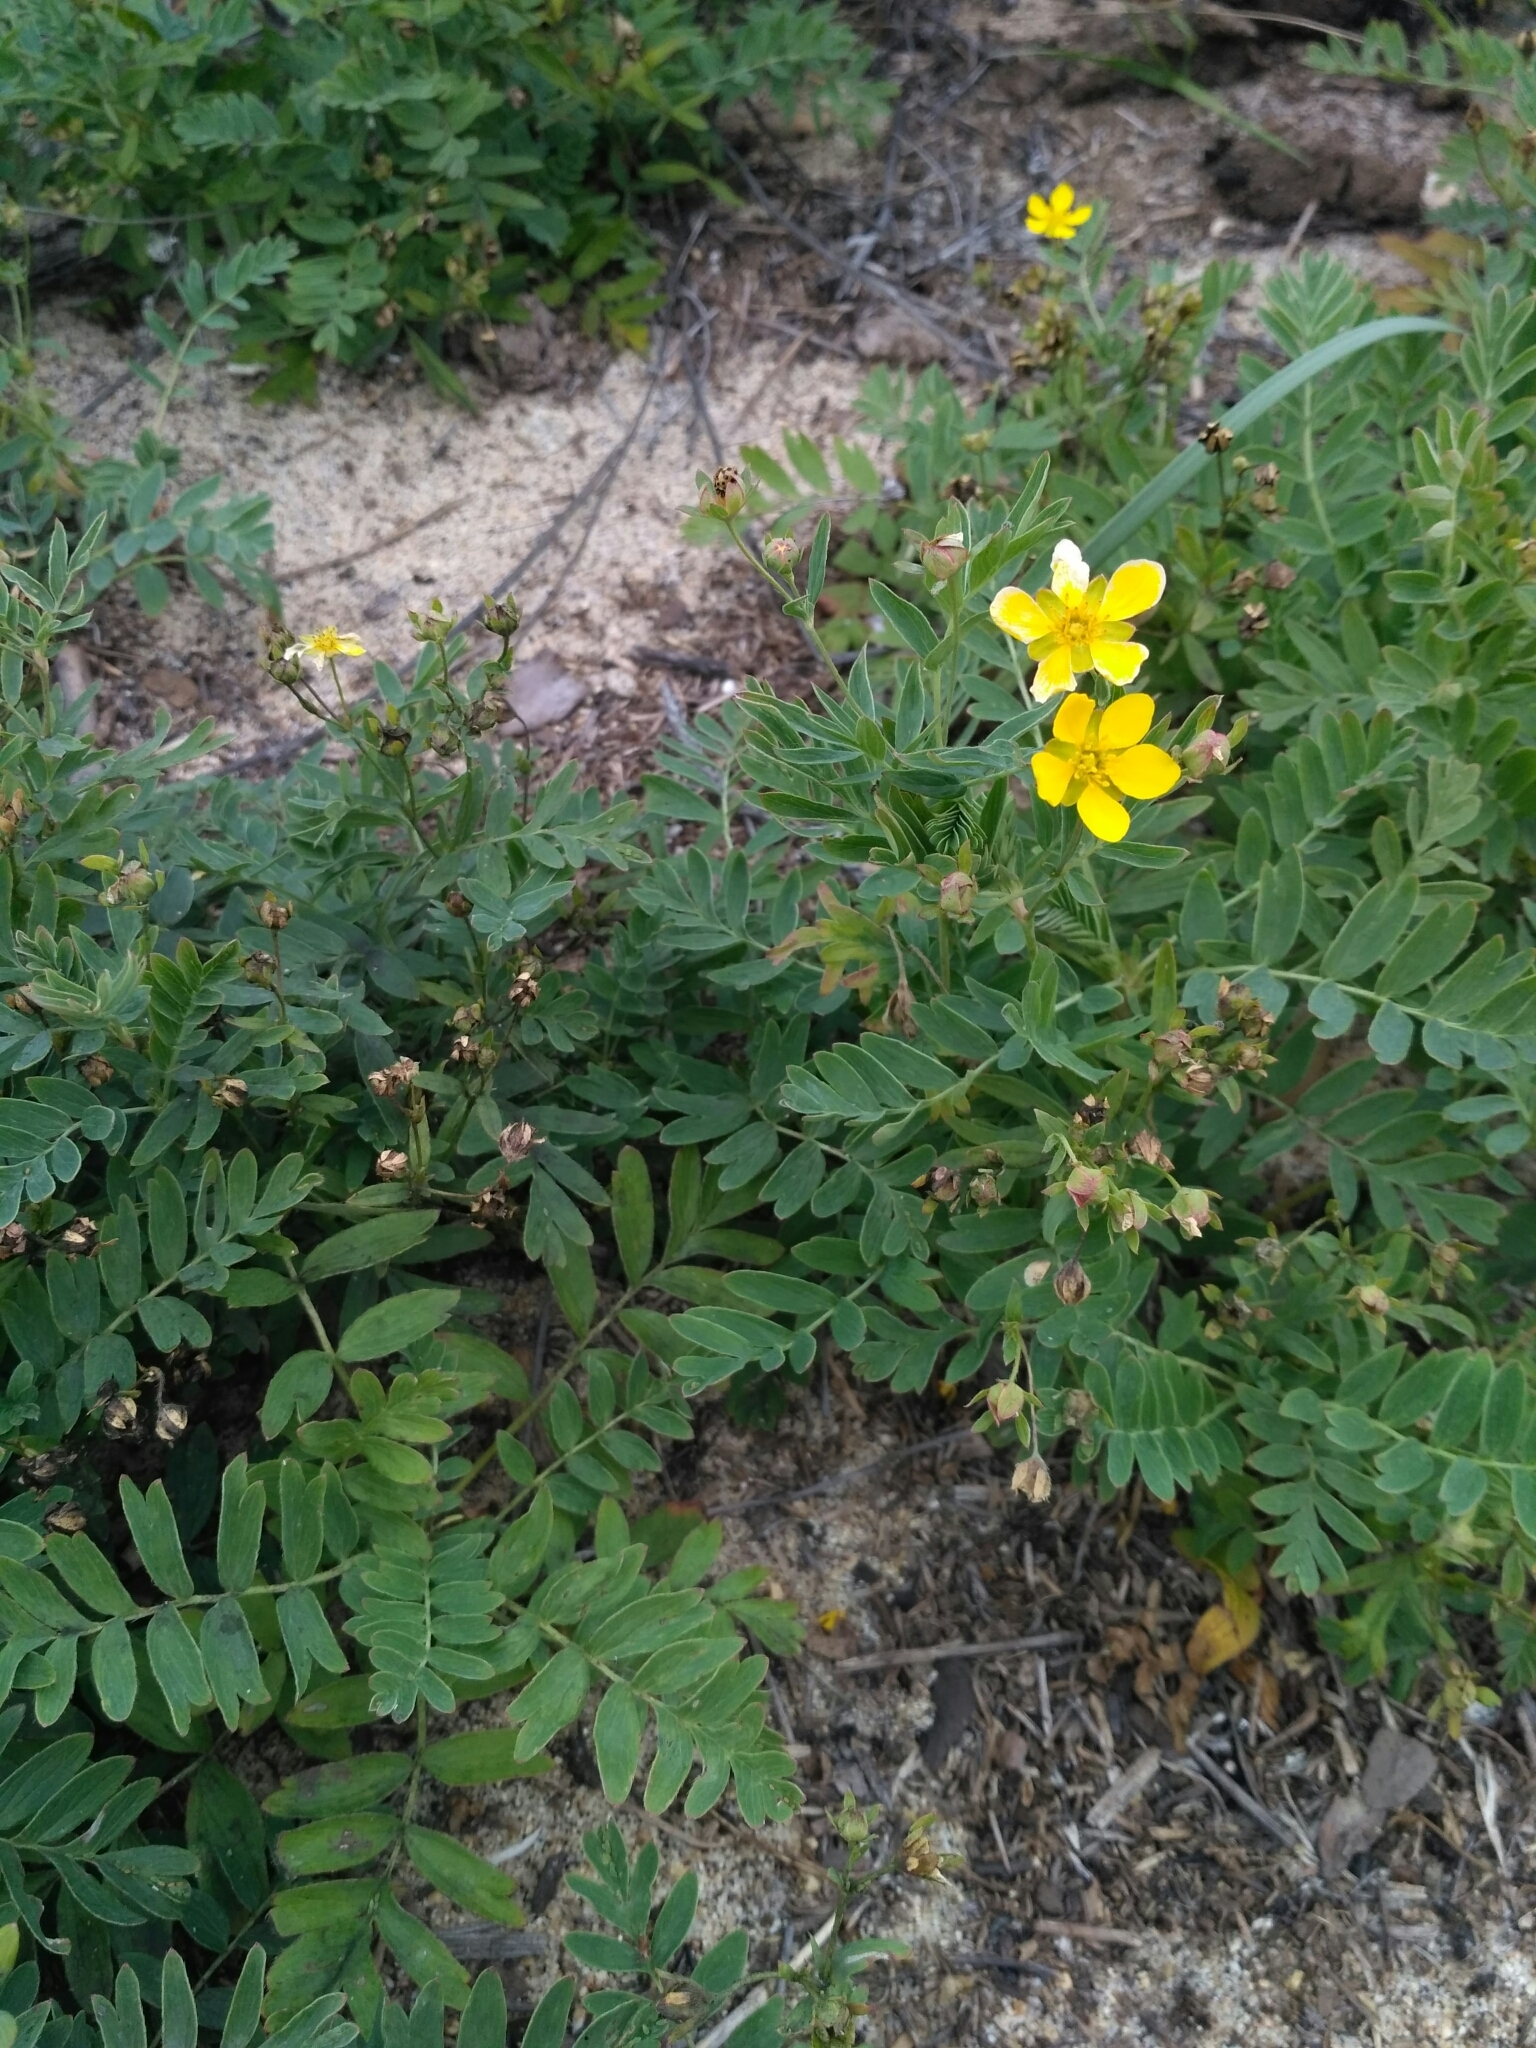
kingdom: Plantae
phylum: Tracheophyta
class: Magnoliopsida
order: Rosales
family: Rosaceae
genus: Sibbaldianthe
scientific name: Sibbaldianthe bifurca
